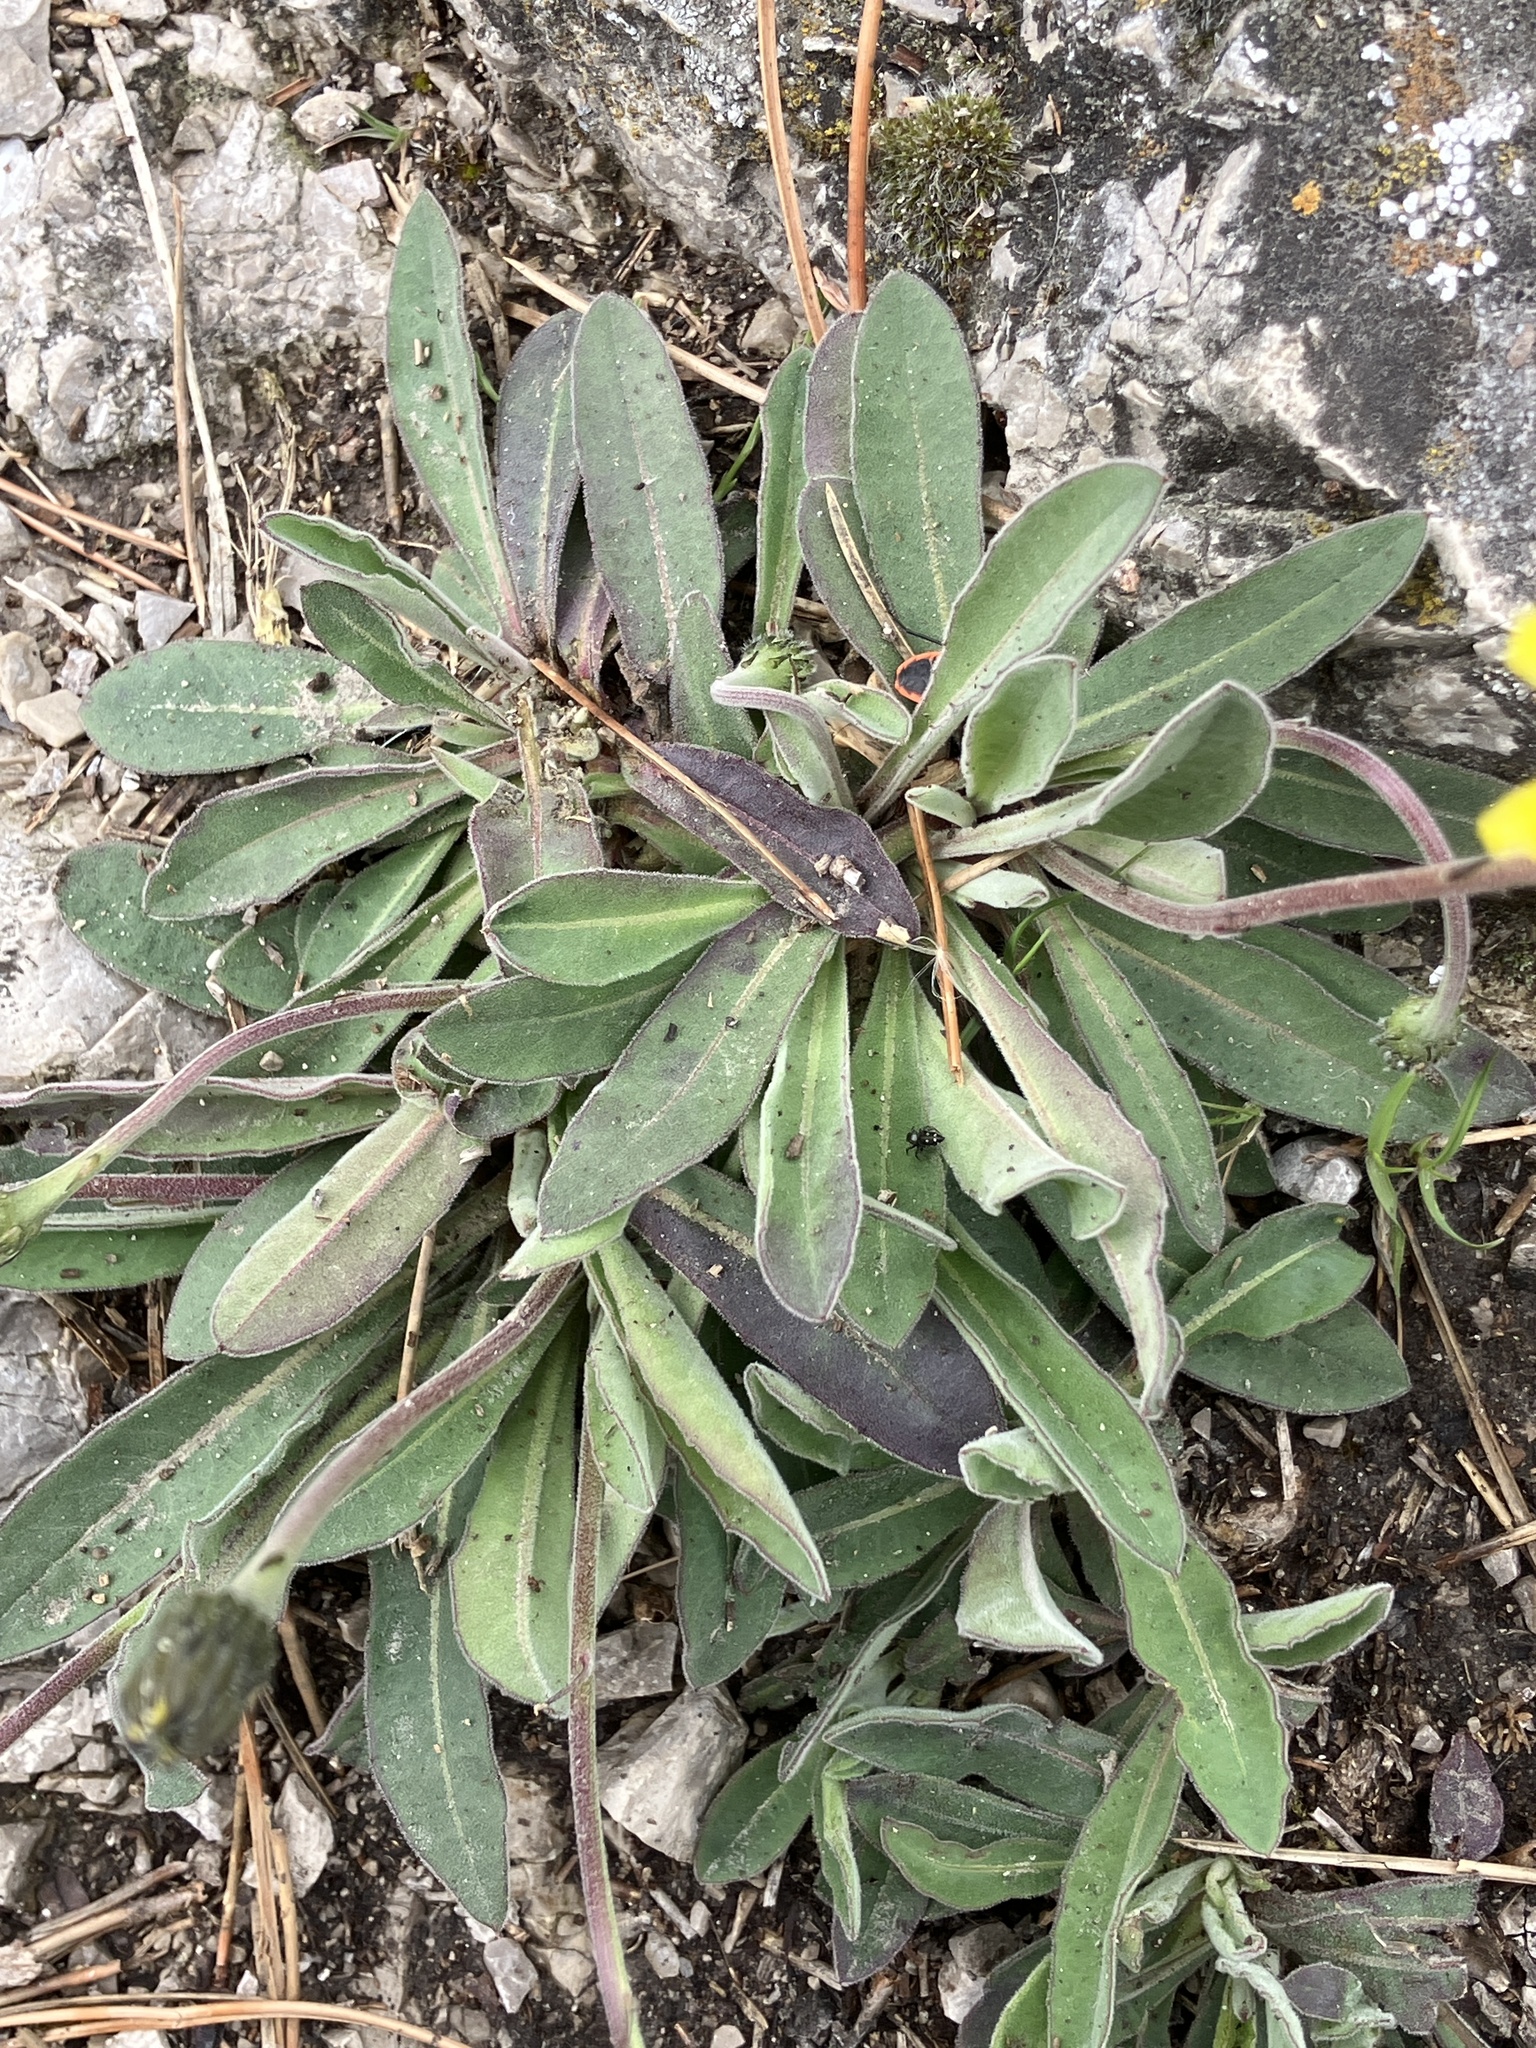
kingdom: Plantae
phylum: Tracheophyta
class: Magnoliopsida
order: Asterales
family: Asteraceae
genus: Leontodon
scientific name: Leontodon incanus
